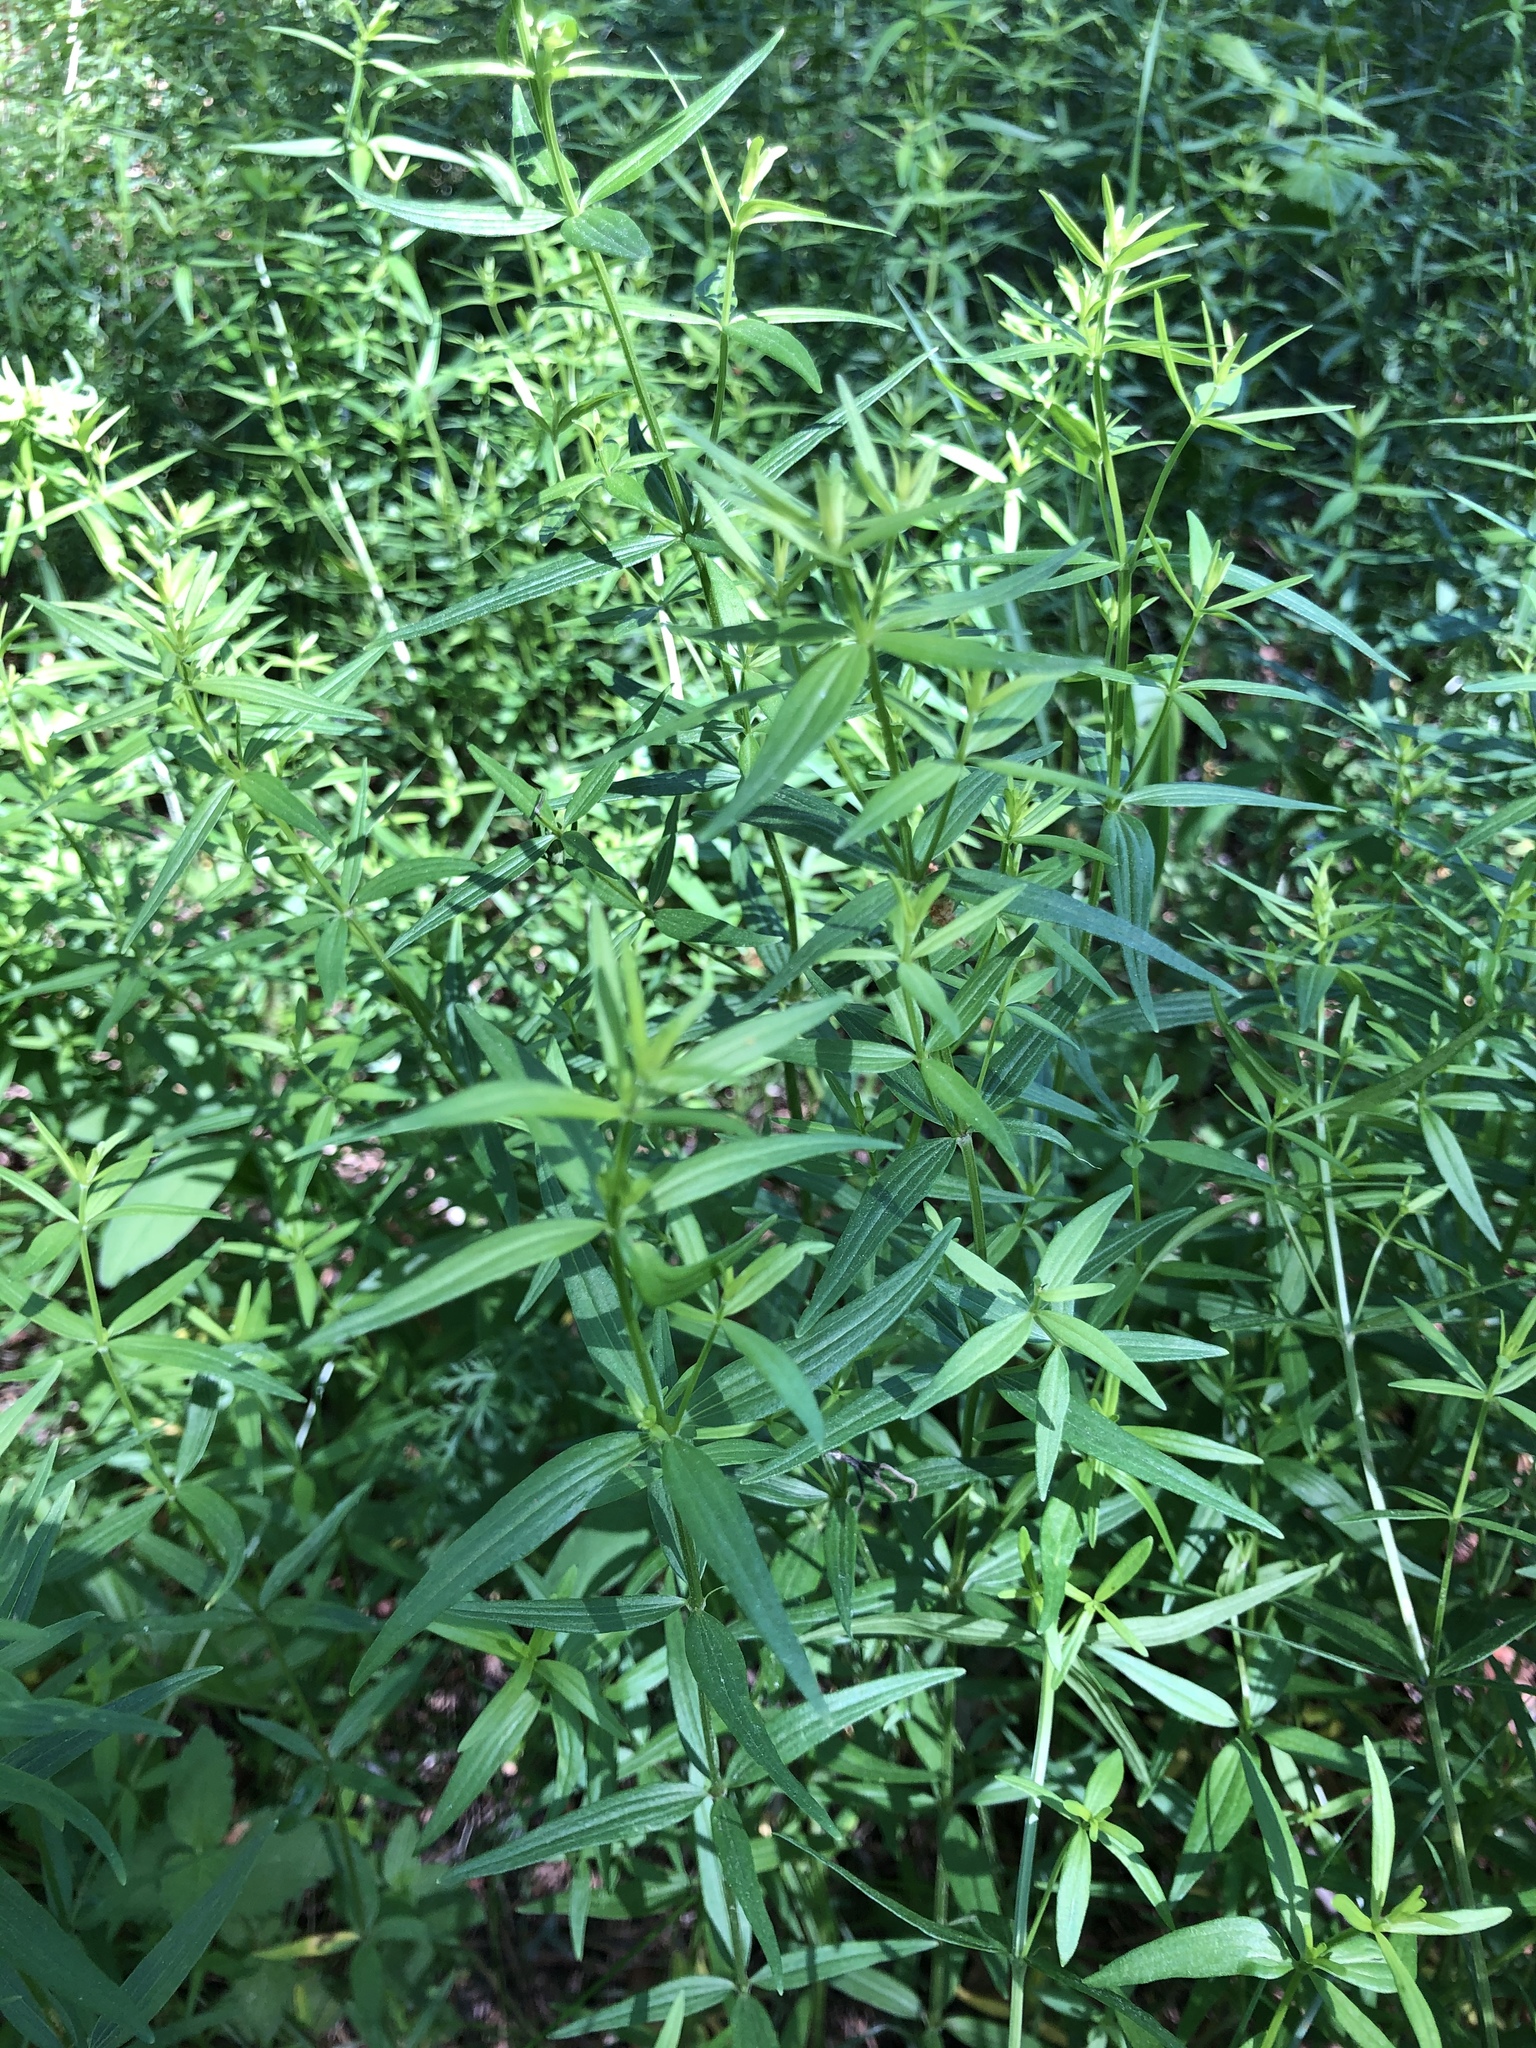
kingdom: Plantae
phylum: Tracheophyta
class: Magnoliopsida
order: Gentianales
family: Rubiaceae
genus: Galium
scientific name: Galium boreale
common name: Northern bedstraw
